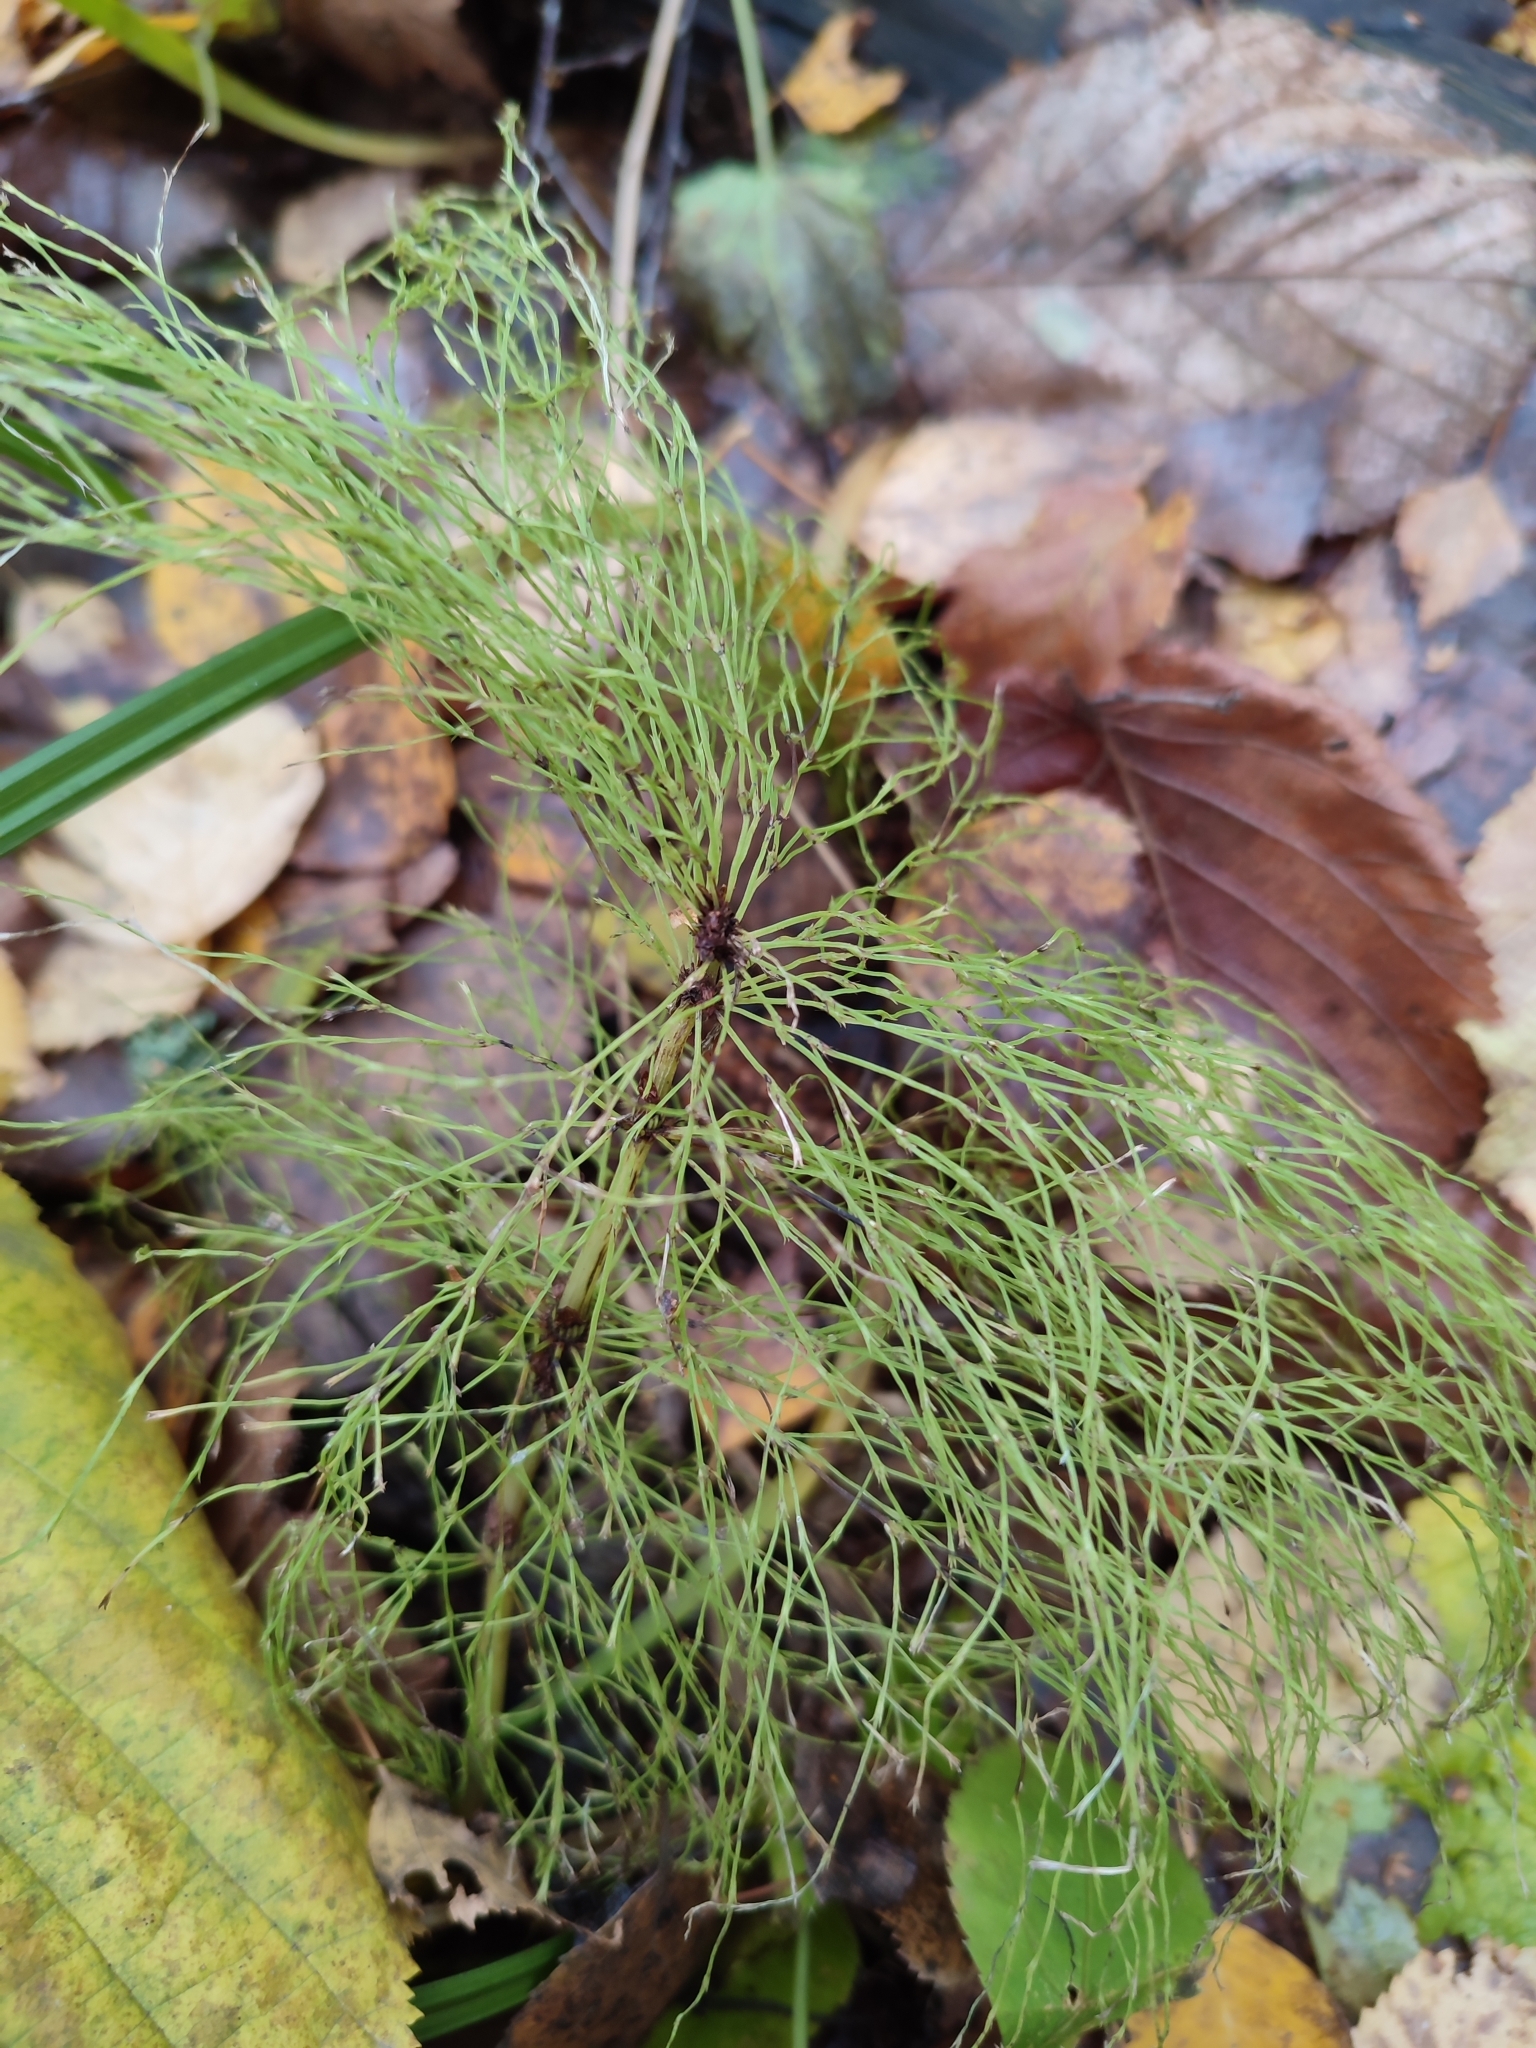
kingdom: Plantae
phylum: Tracheophyta
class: Polypodiopsida
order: Equisetales
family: Equisetaceae
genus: Equisetum
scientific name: Equisetum sylvaticum
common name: Wood horsetail
